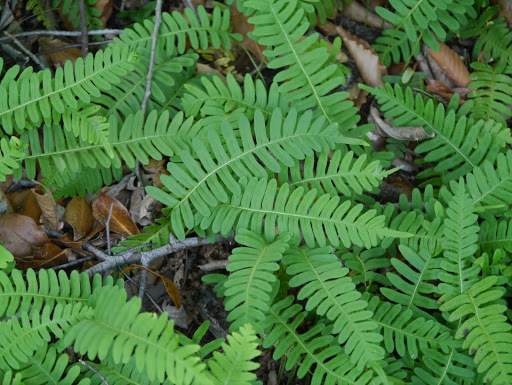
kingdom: Plantae
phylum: Tracheophyta
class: Polypodiopsida
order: Polypodiales
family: Polypodiaceae
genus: Polypodium
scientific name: Polypodium virginianum
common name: American wall fern
